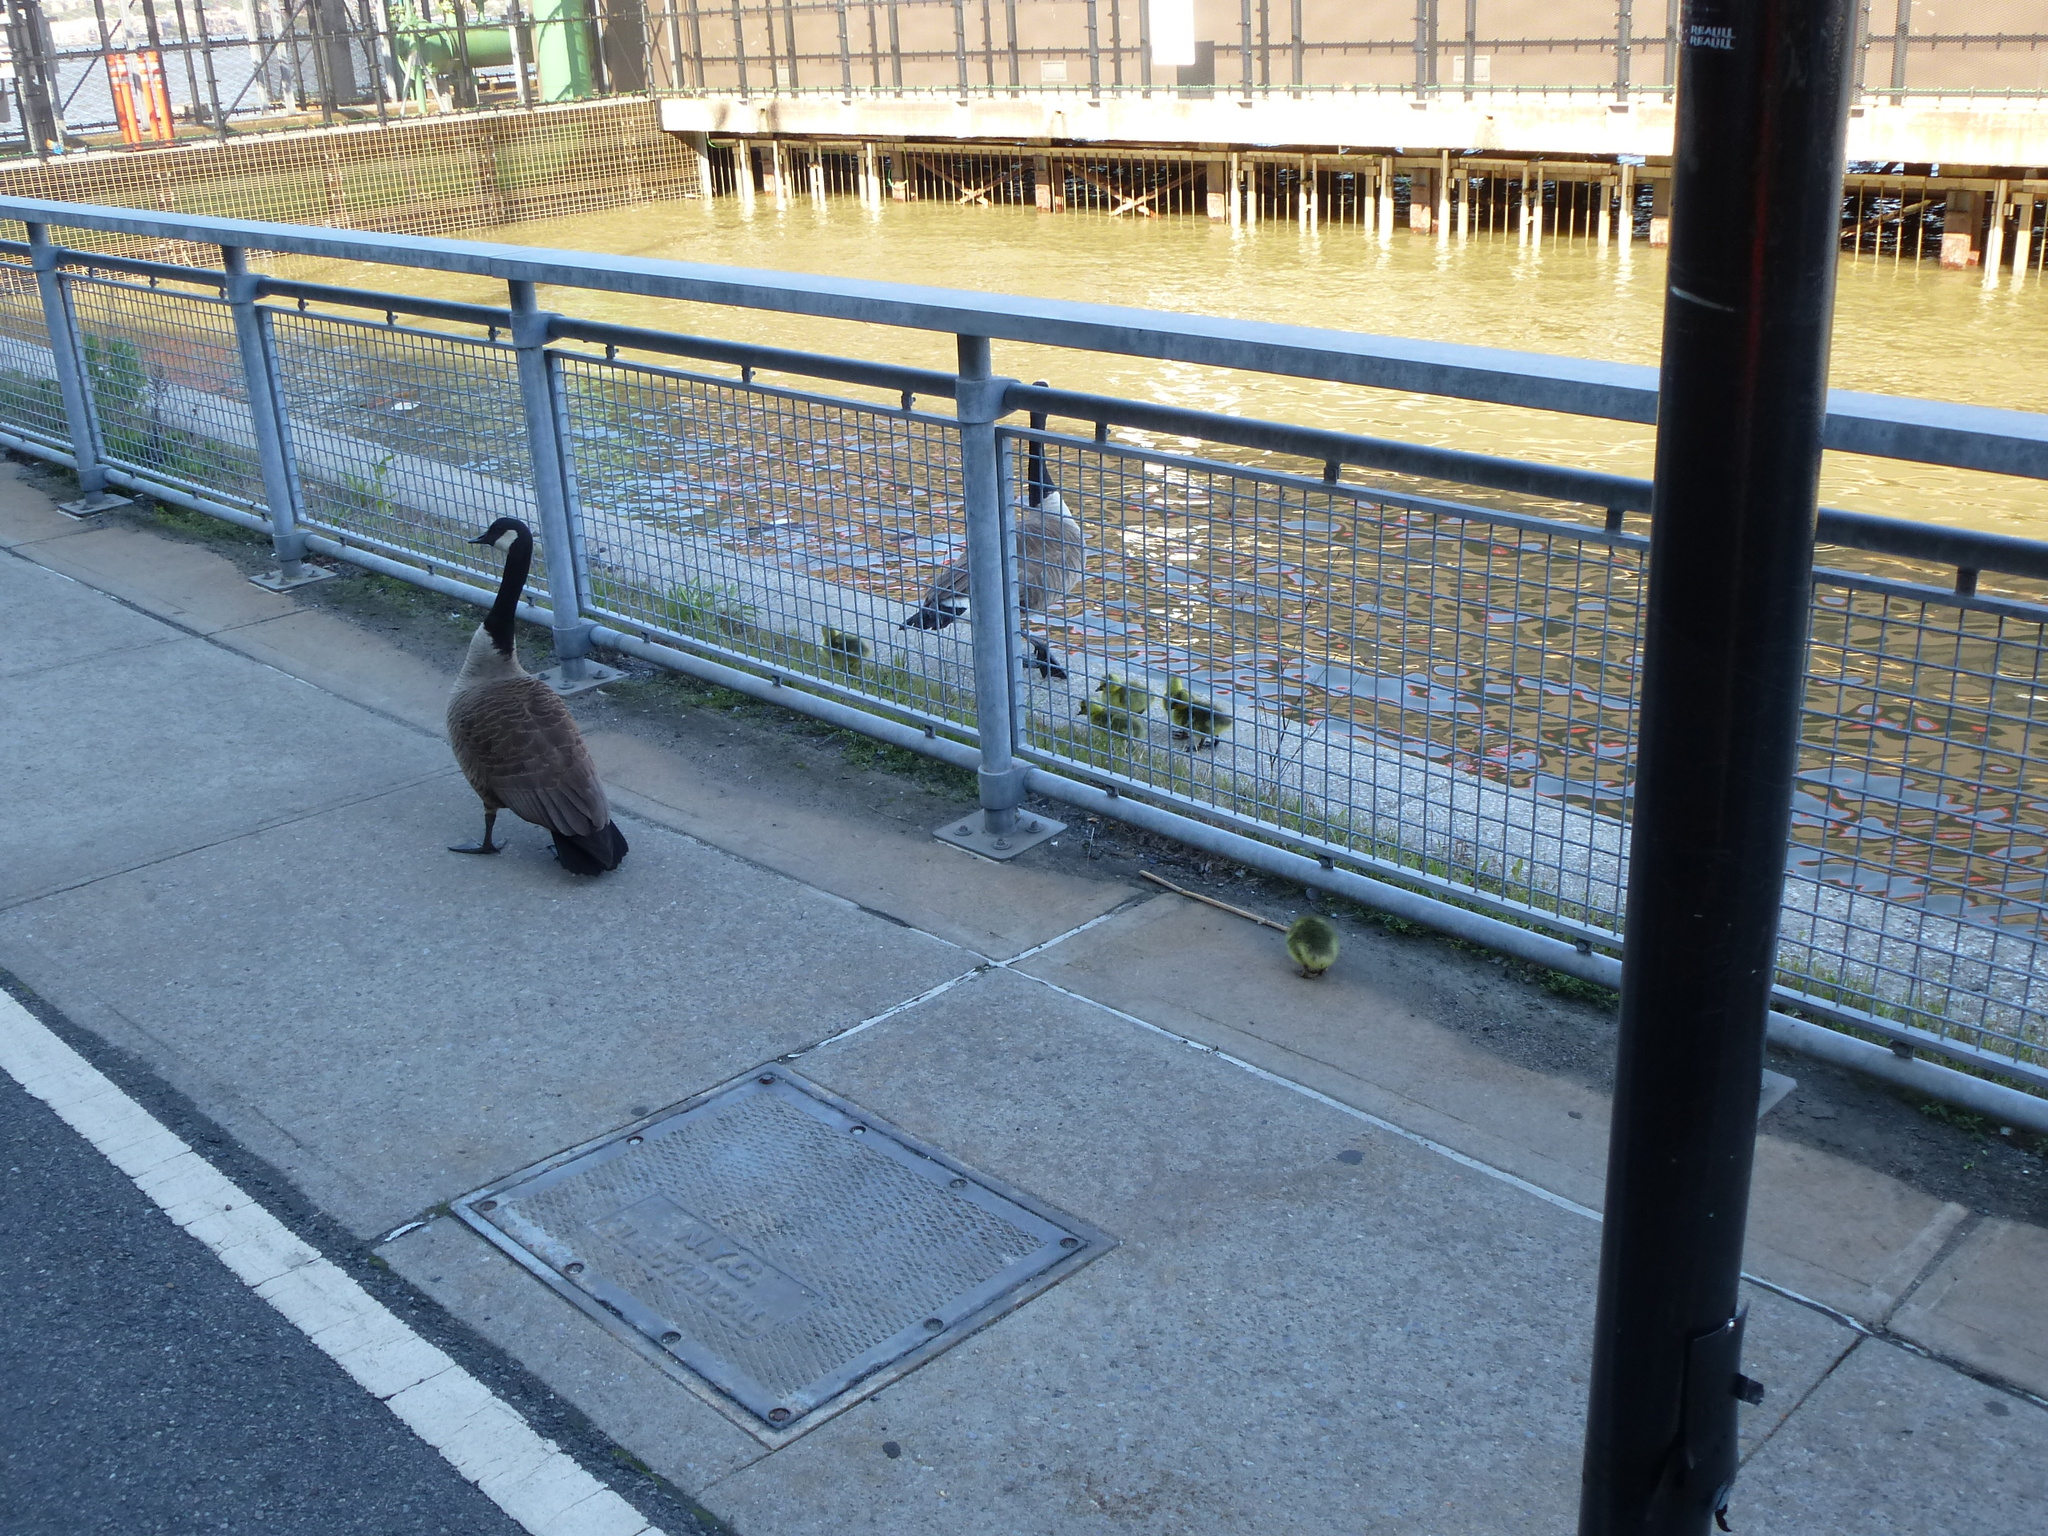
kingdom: Animalia
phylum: Chordata
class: Aves
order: Anseriformes
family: Anatidae
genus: Branta
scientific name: Branta canadensis
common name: Canada goose
